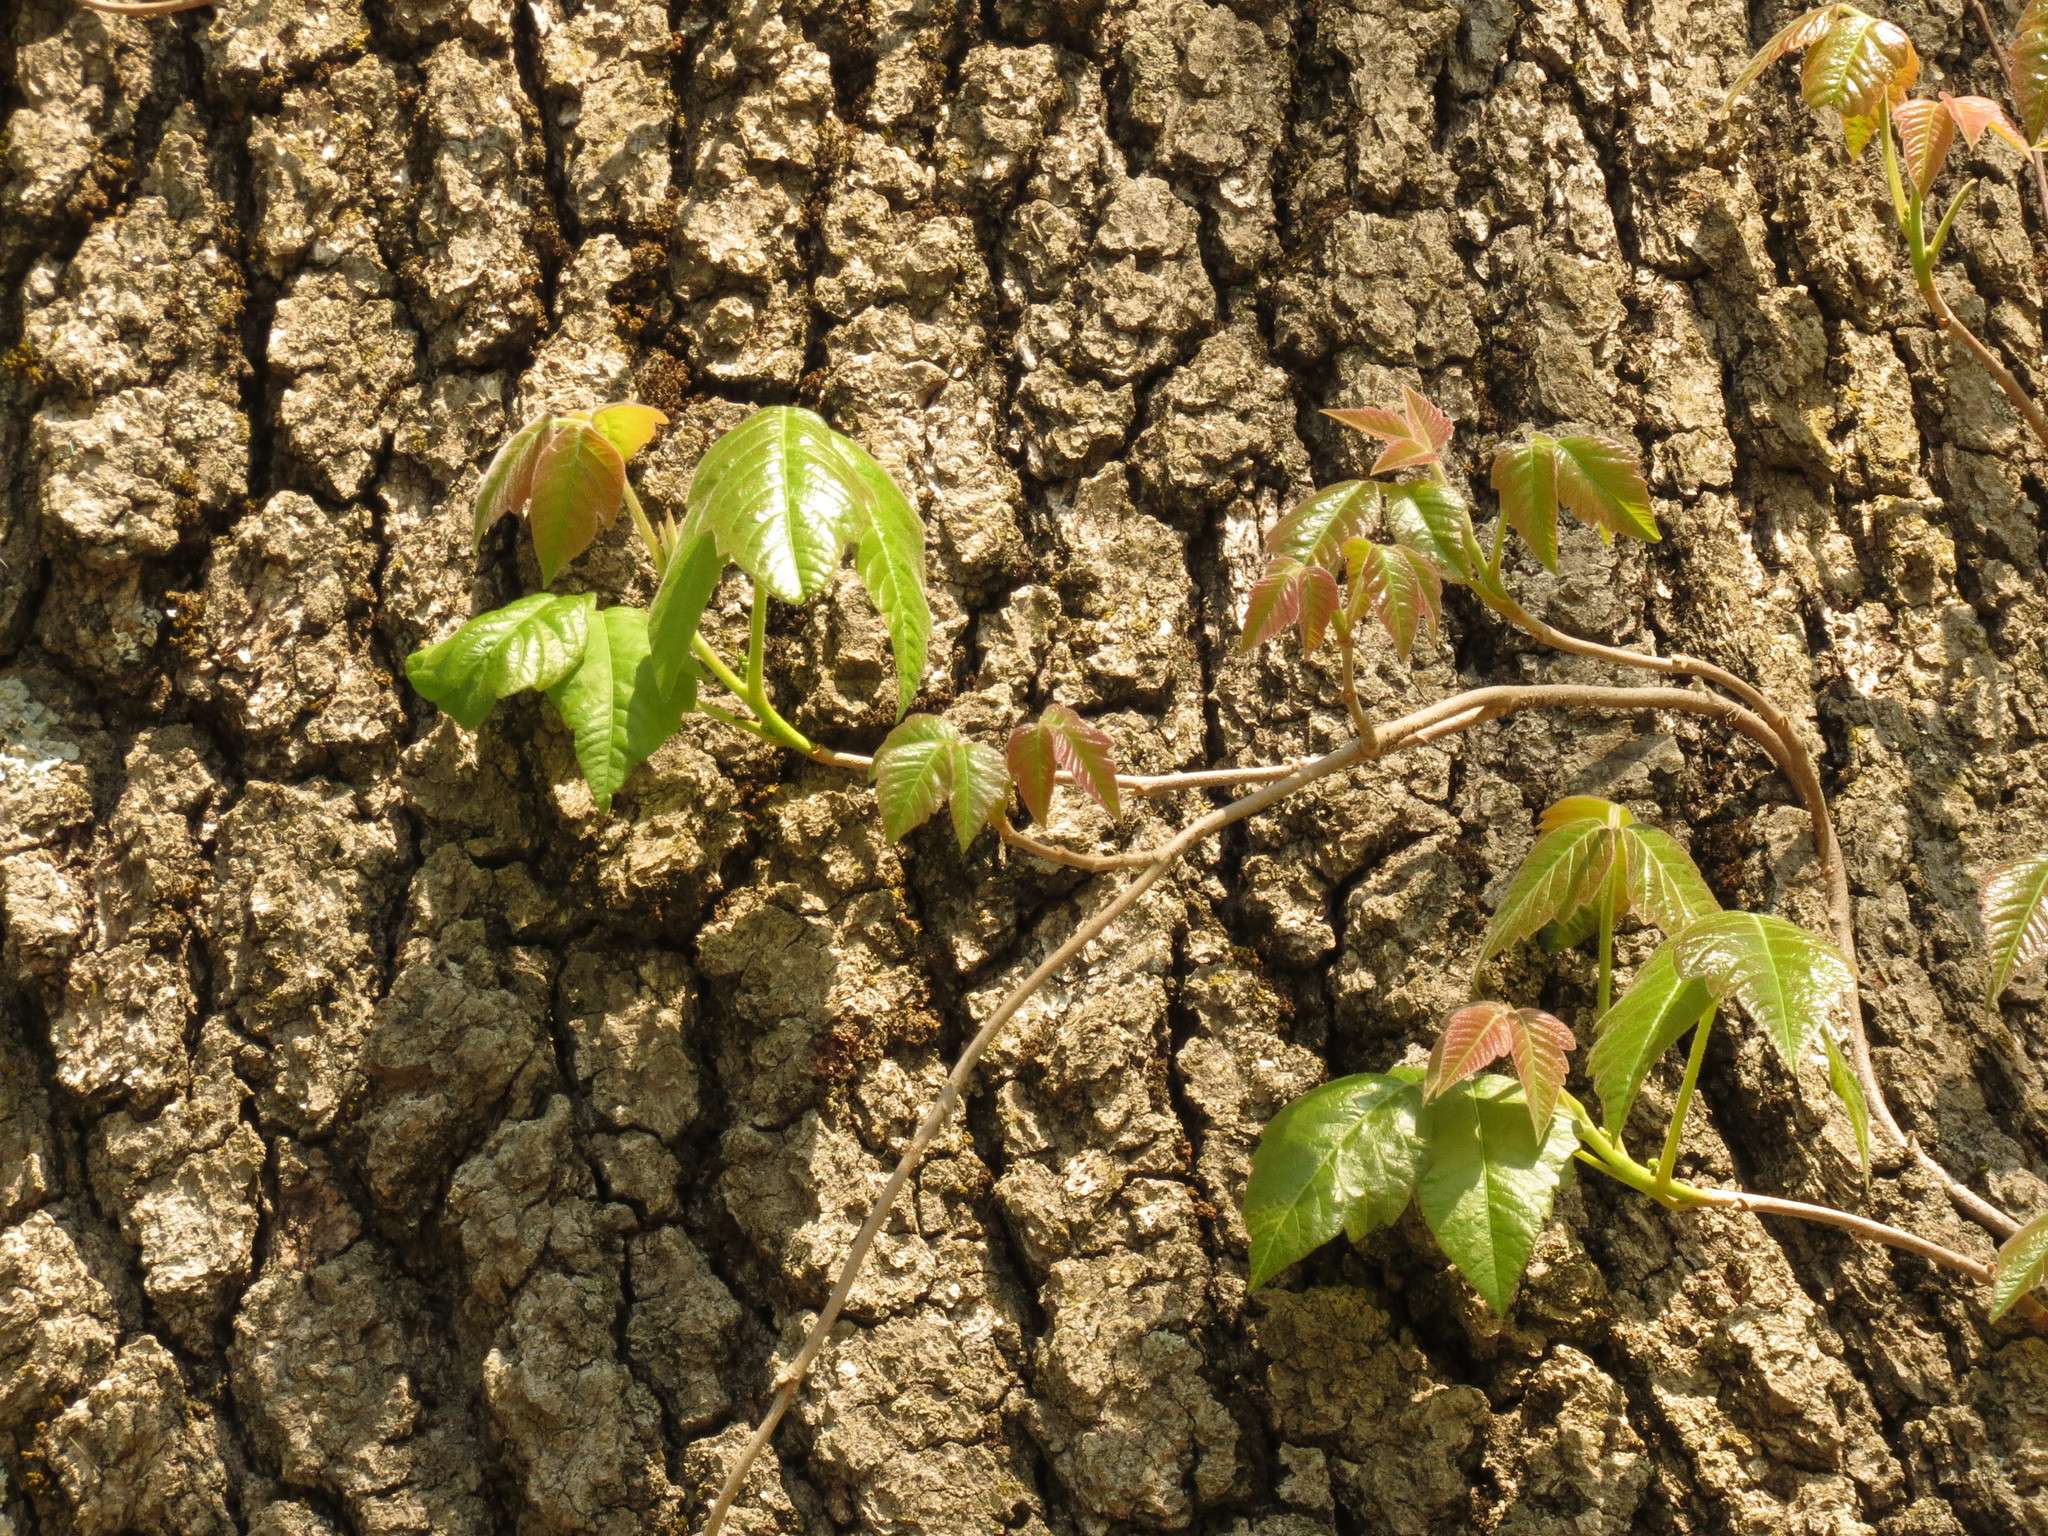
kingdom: Plantae
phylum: Tracheophyta
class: Magnoliopsida
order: Sapindales
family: Anacardiaceae
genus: Toxicodendron
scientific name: Toxicodendron radicans
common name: Poison ivy
